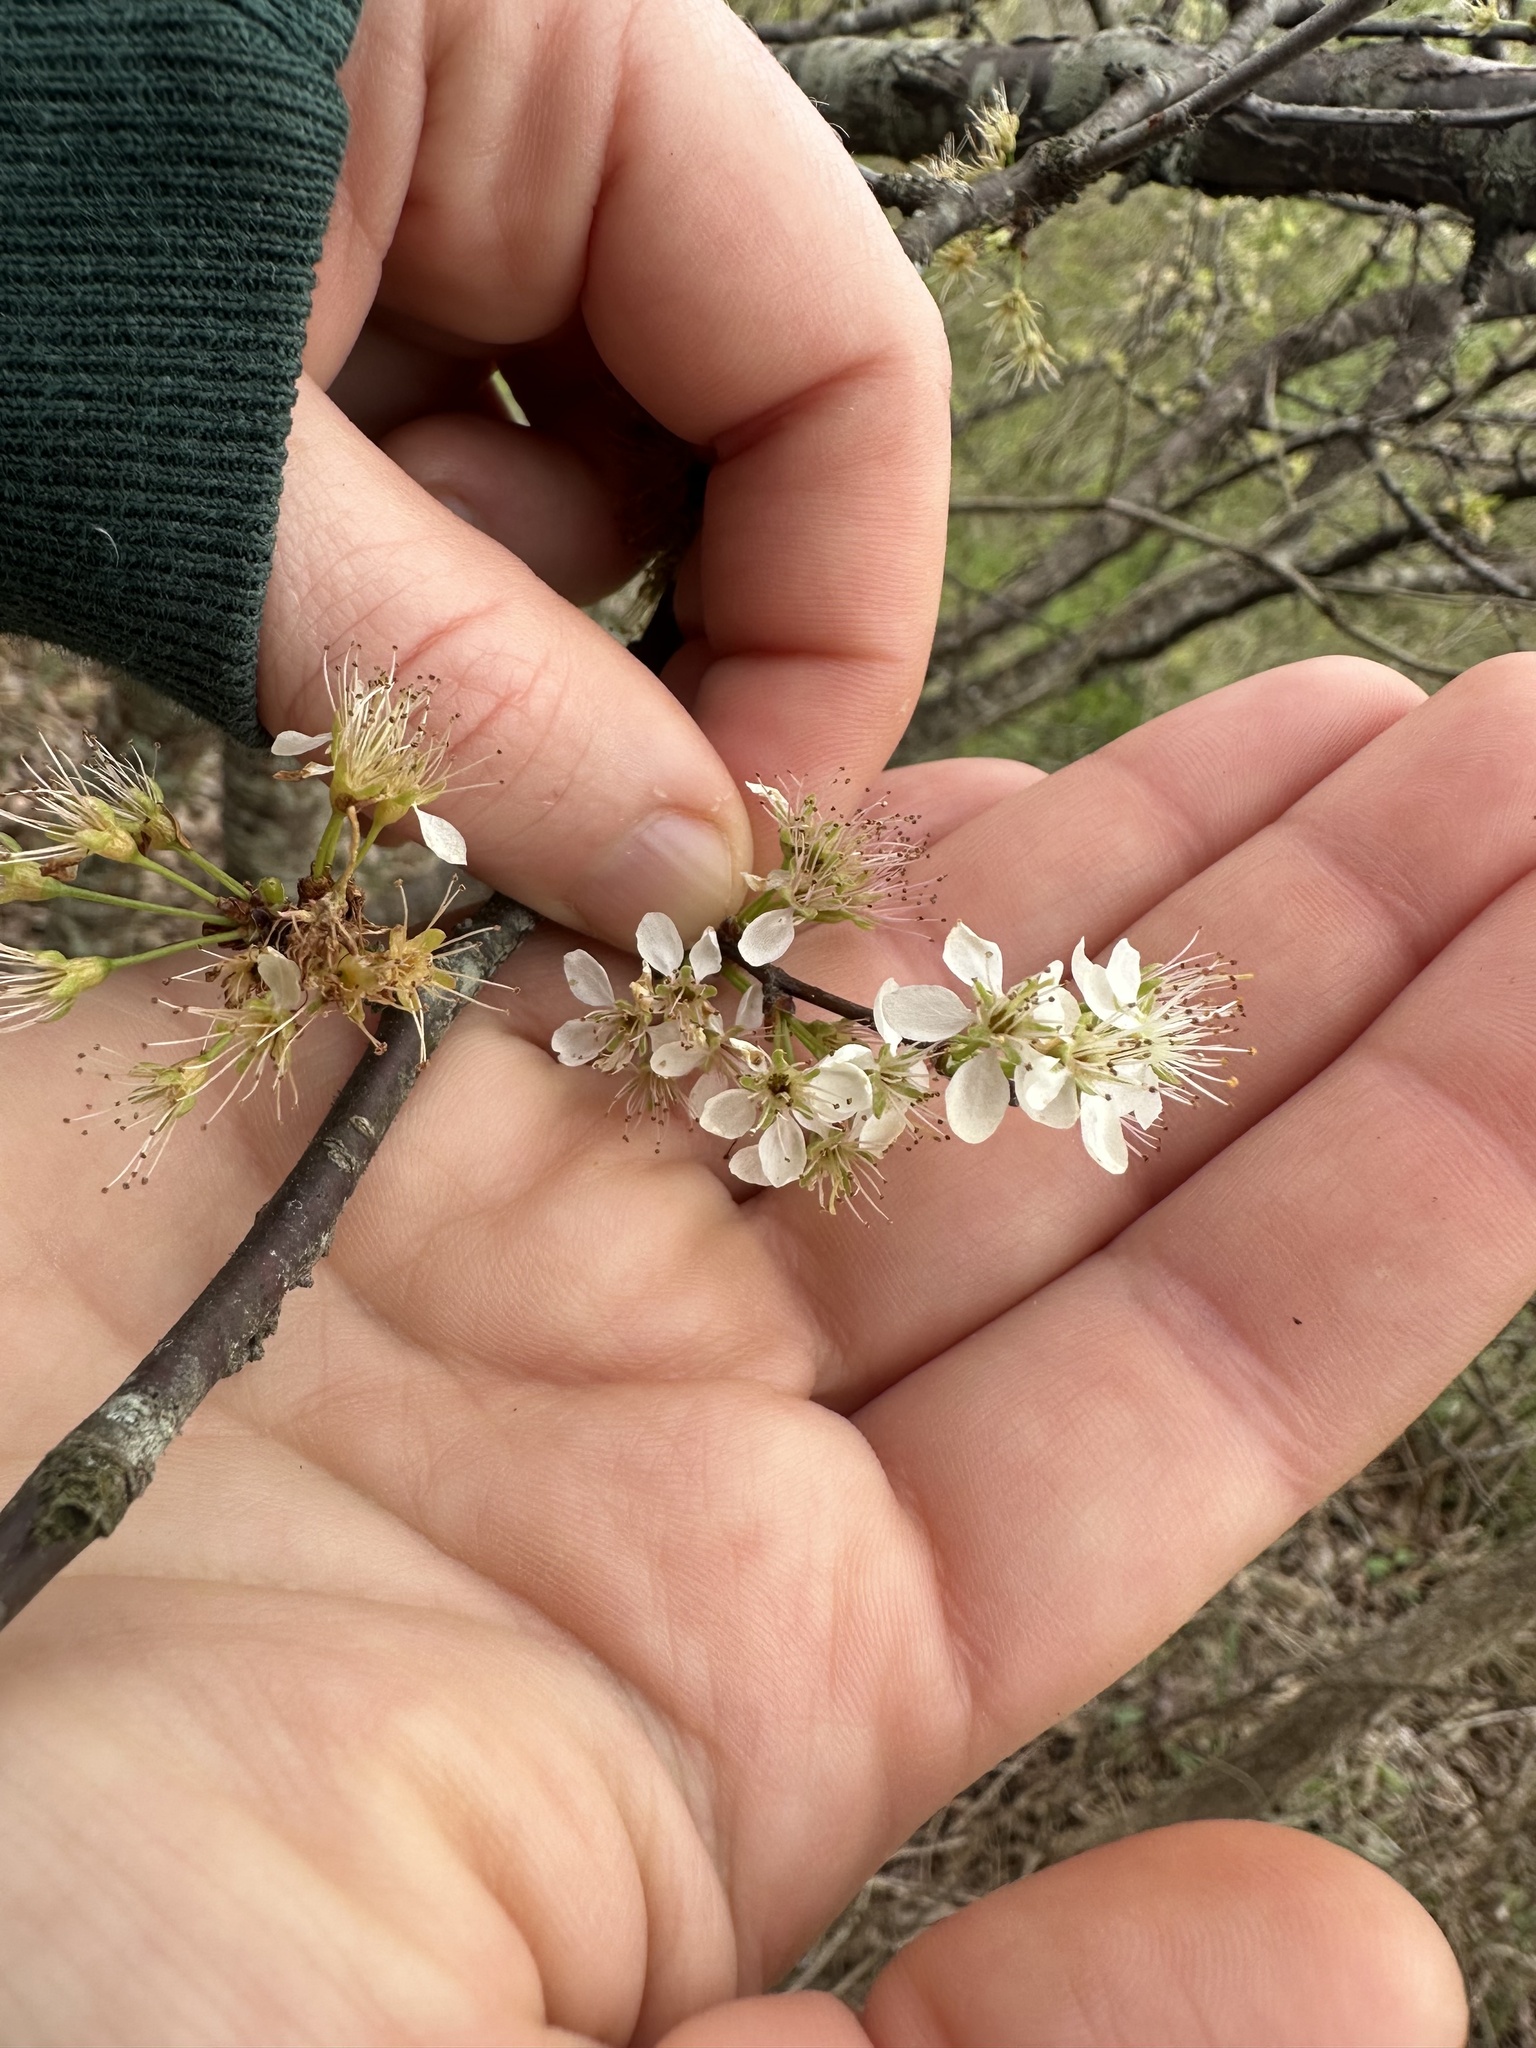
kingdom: Plantae
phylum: Tracheophyta
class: Magnoliopsida
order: Rosales
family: Rosaceae
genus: Prunus
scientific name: Prunus angustifolia
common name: Cherokee plum
